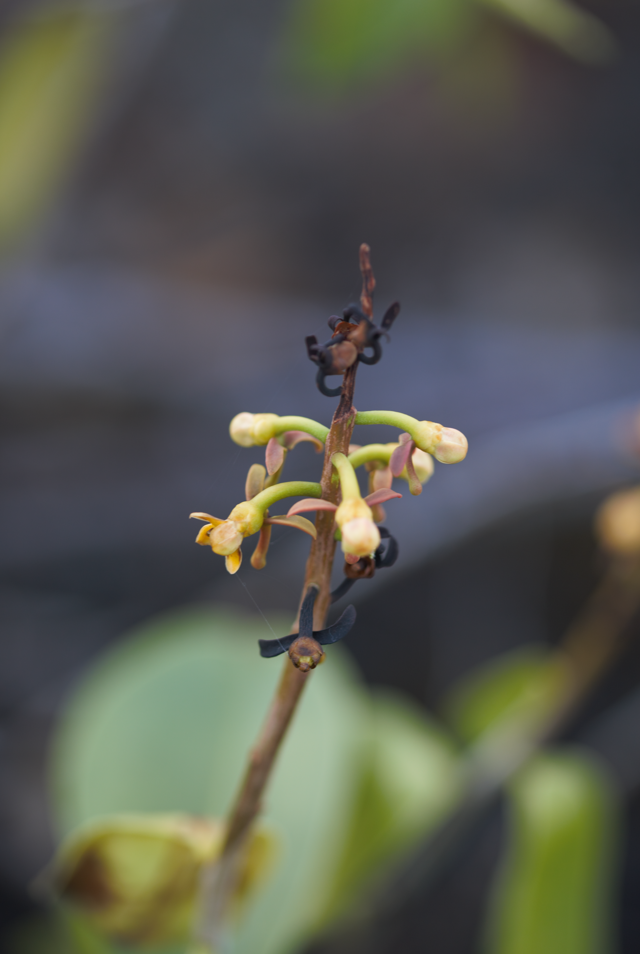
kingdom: Plantae
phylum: Tracheophyta
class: Magnoliopsida
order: Ericales
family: Marcgraviaceae
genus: Souroubea
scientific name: Souroubea guianensis
